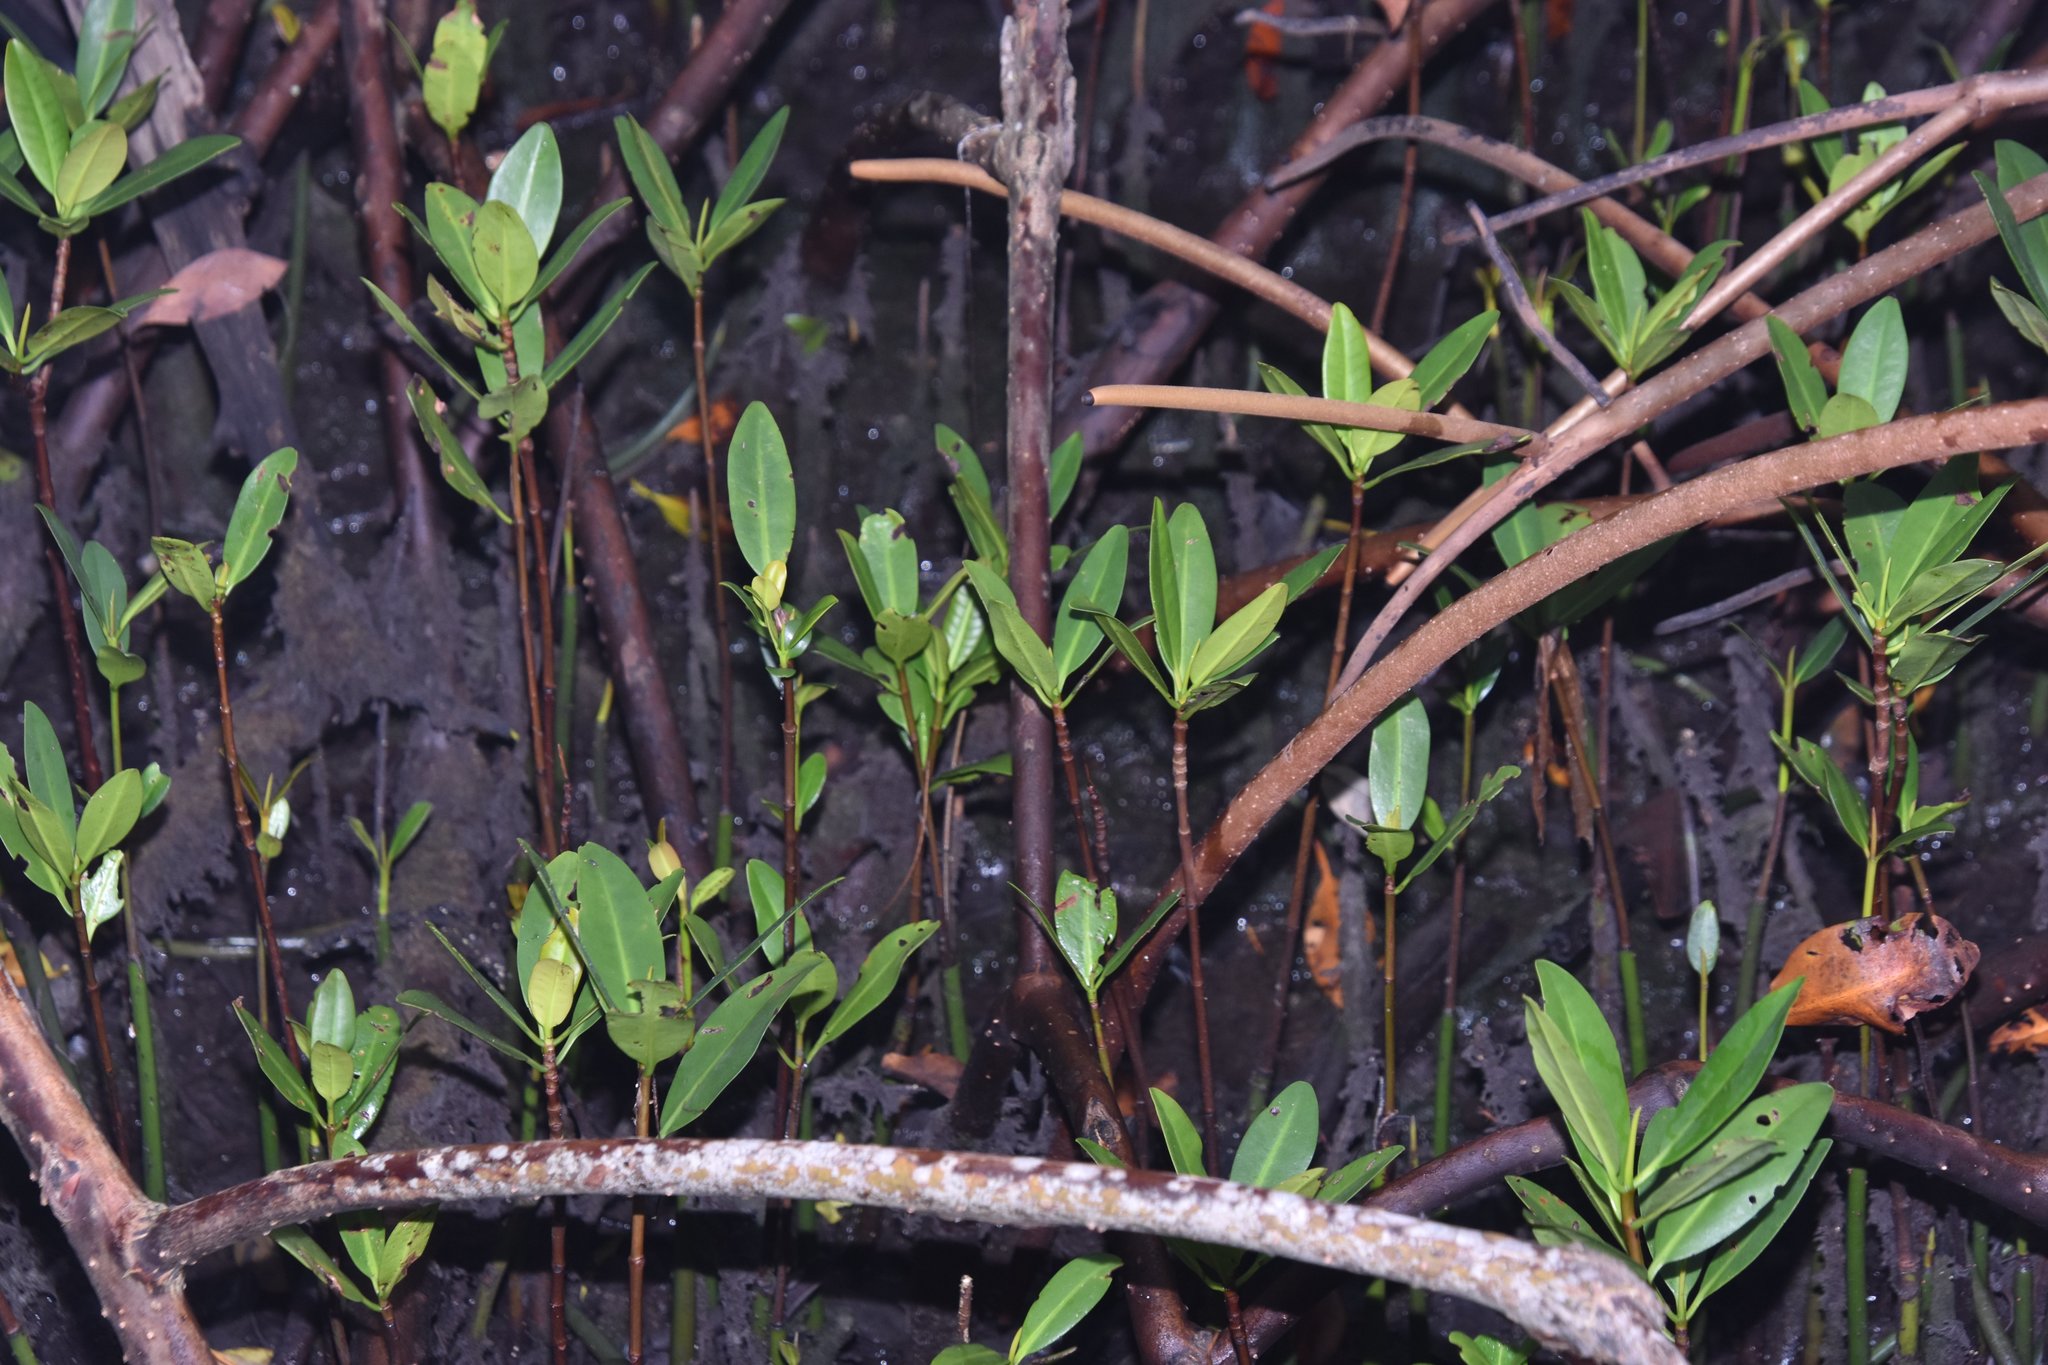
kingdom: Plantae
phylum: Tracheophyta
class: Magnoliopsida
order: Malpighiales
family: Rhizophoraceae
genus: Rhizophora
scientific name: Rhizophora mangle
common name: Red mangrove
